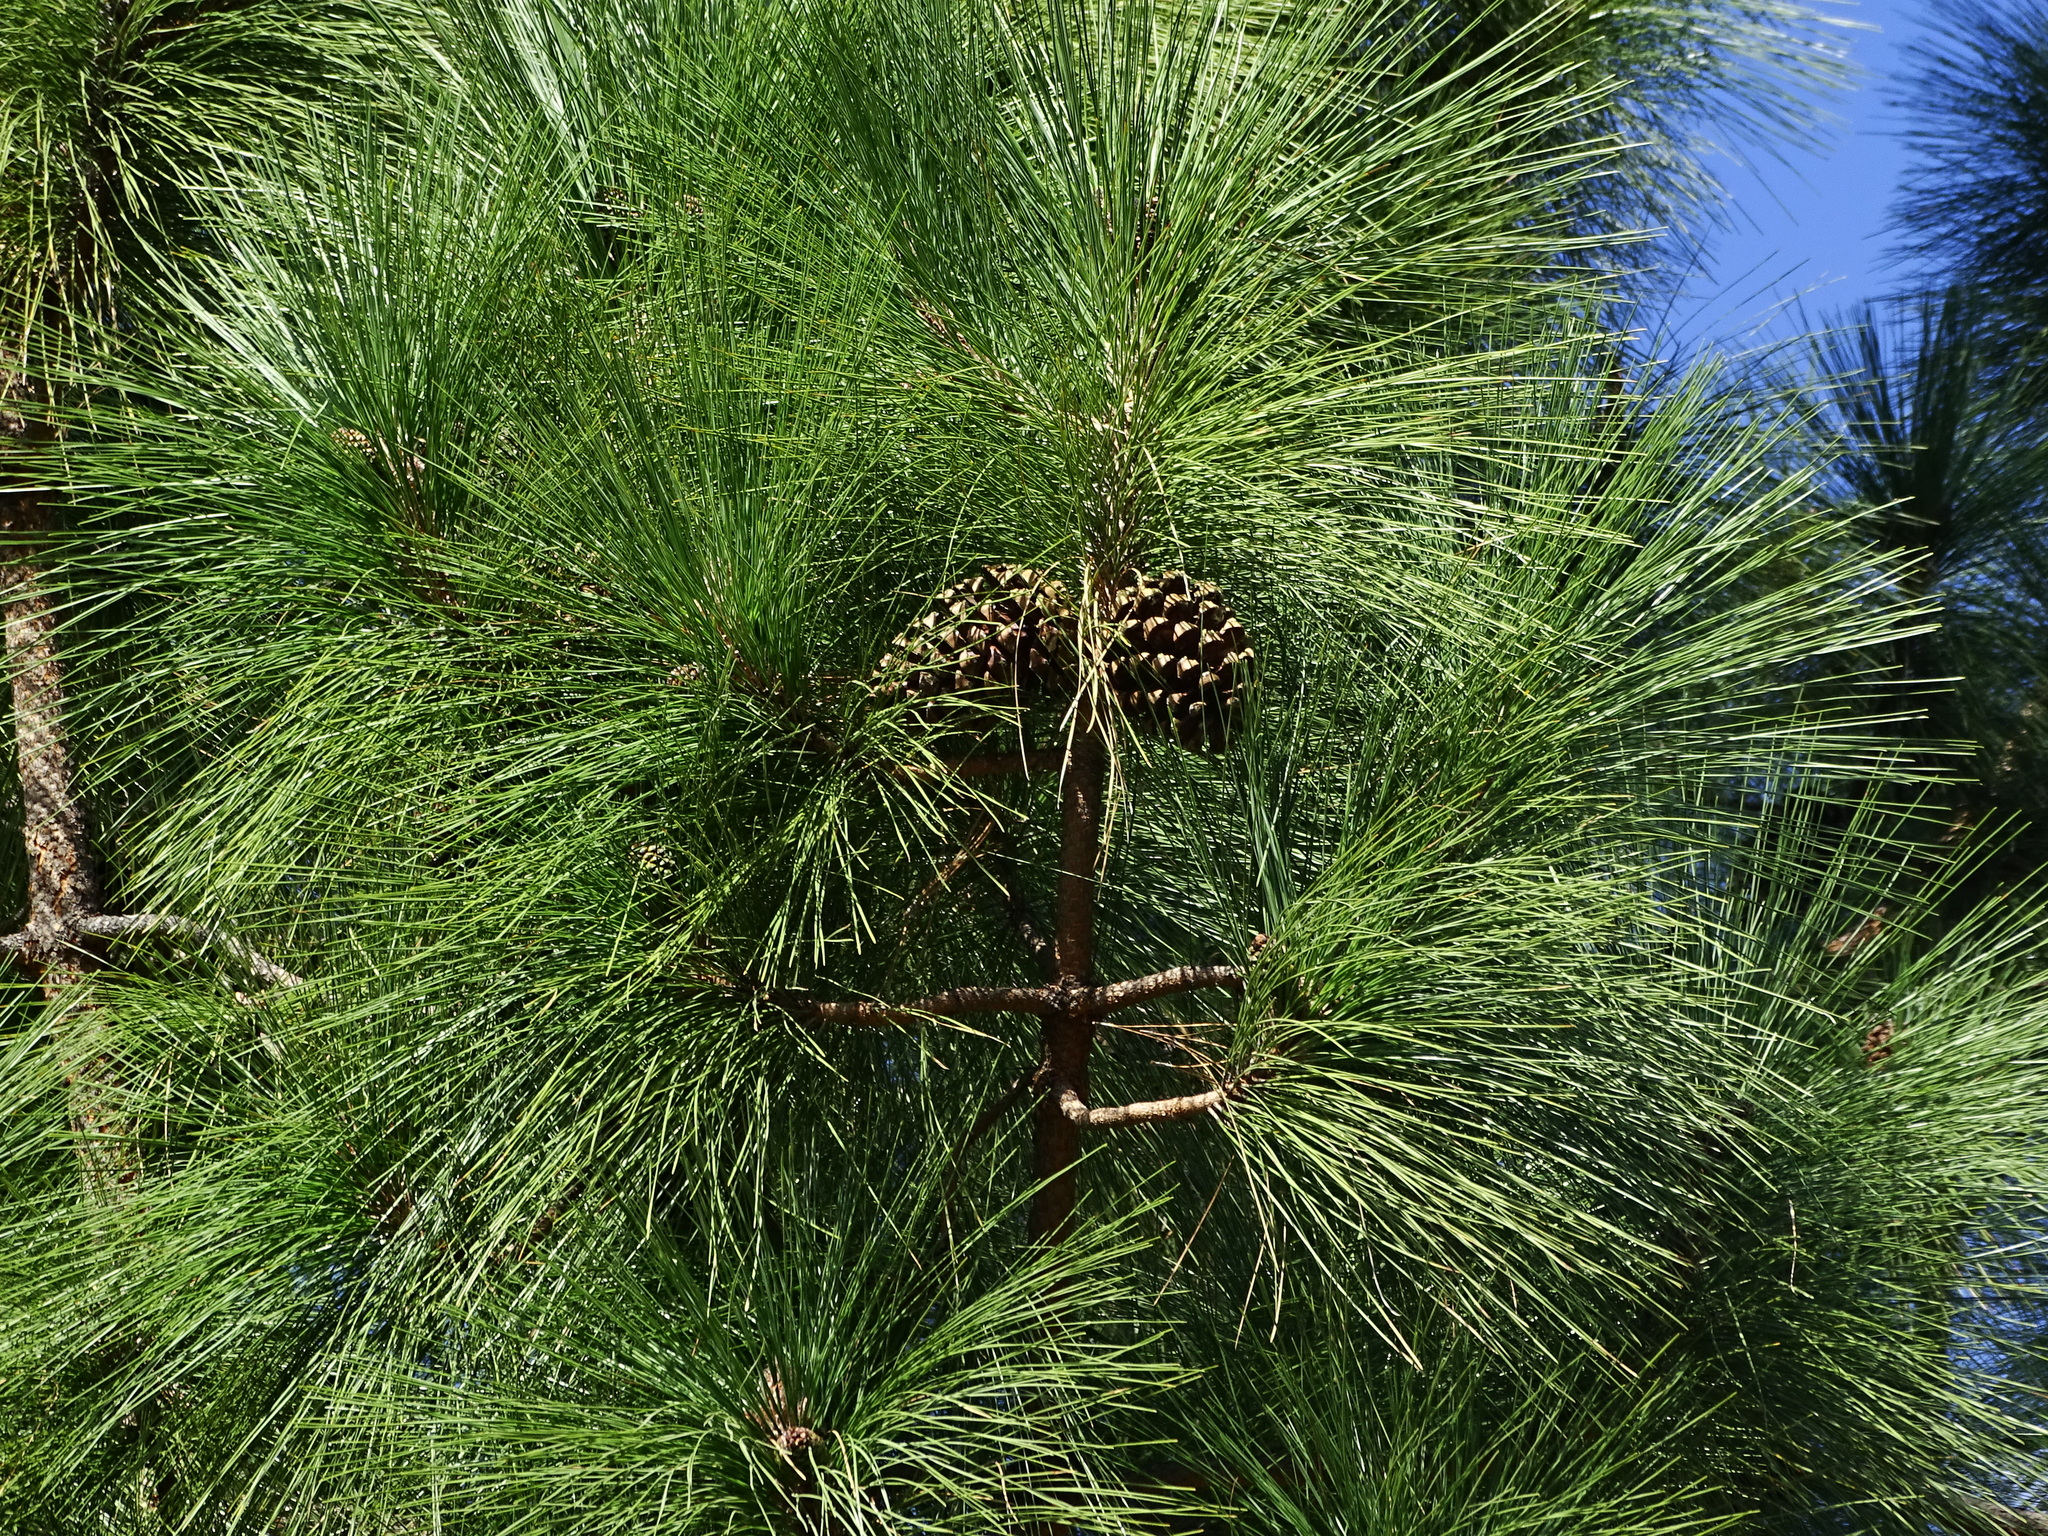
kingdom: Plantae
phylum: Tracheophyta
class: Pinopsida
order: Pinales
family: Pinaceae
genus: Pinus
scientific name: Pinus canariensis
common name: Canary islands pine
